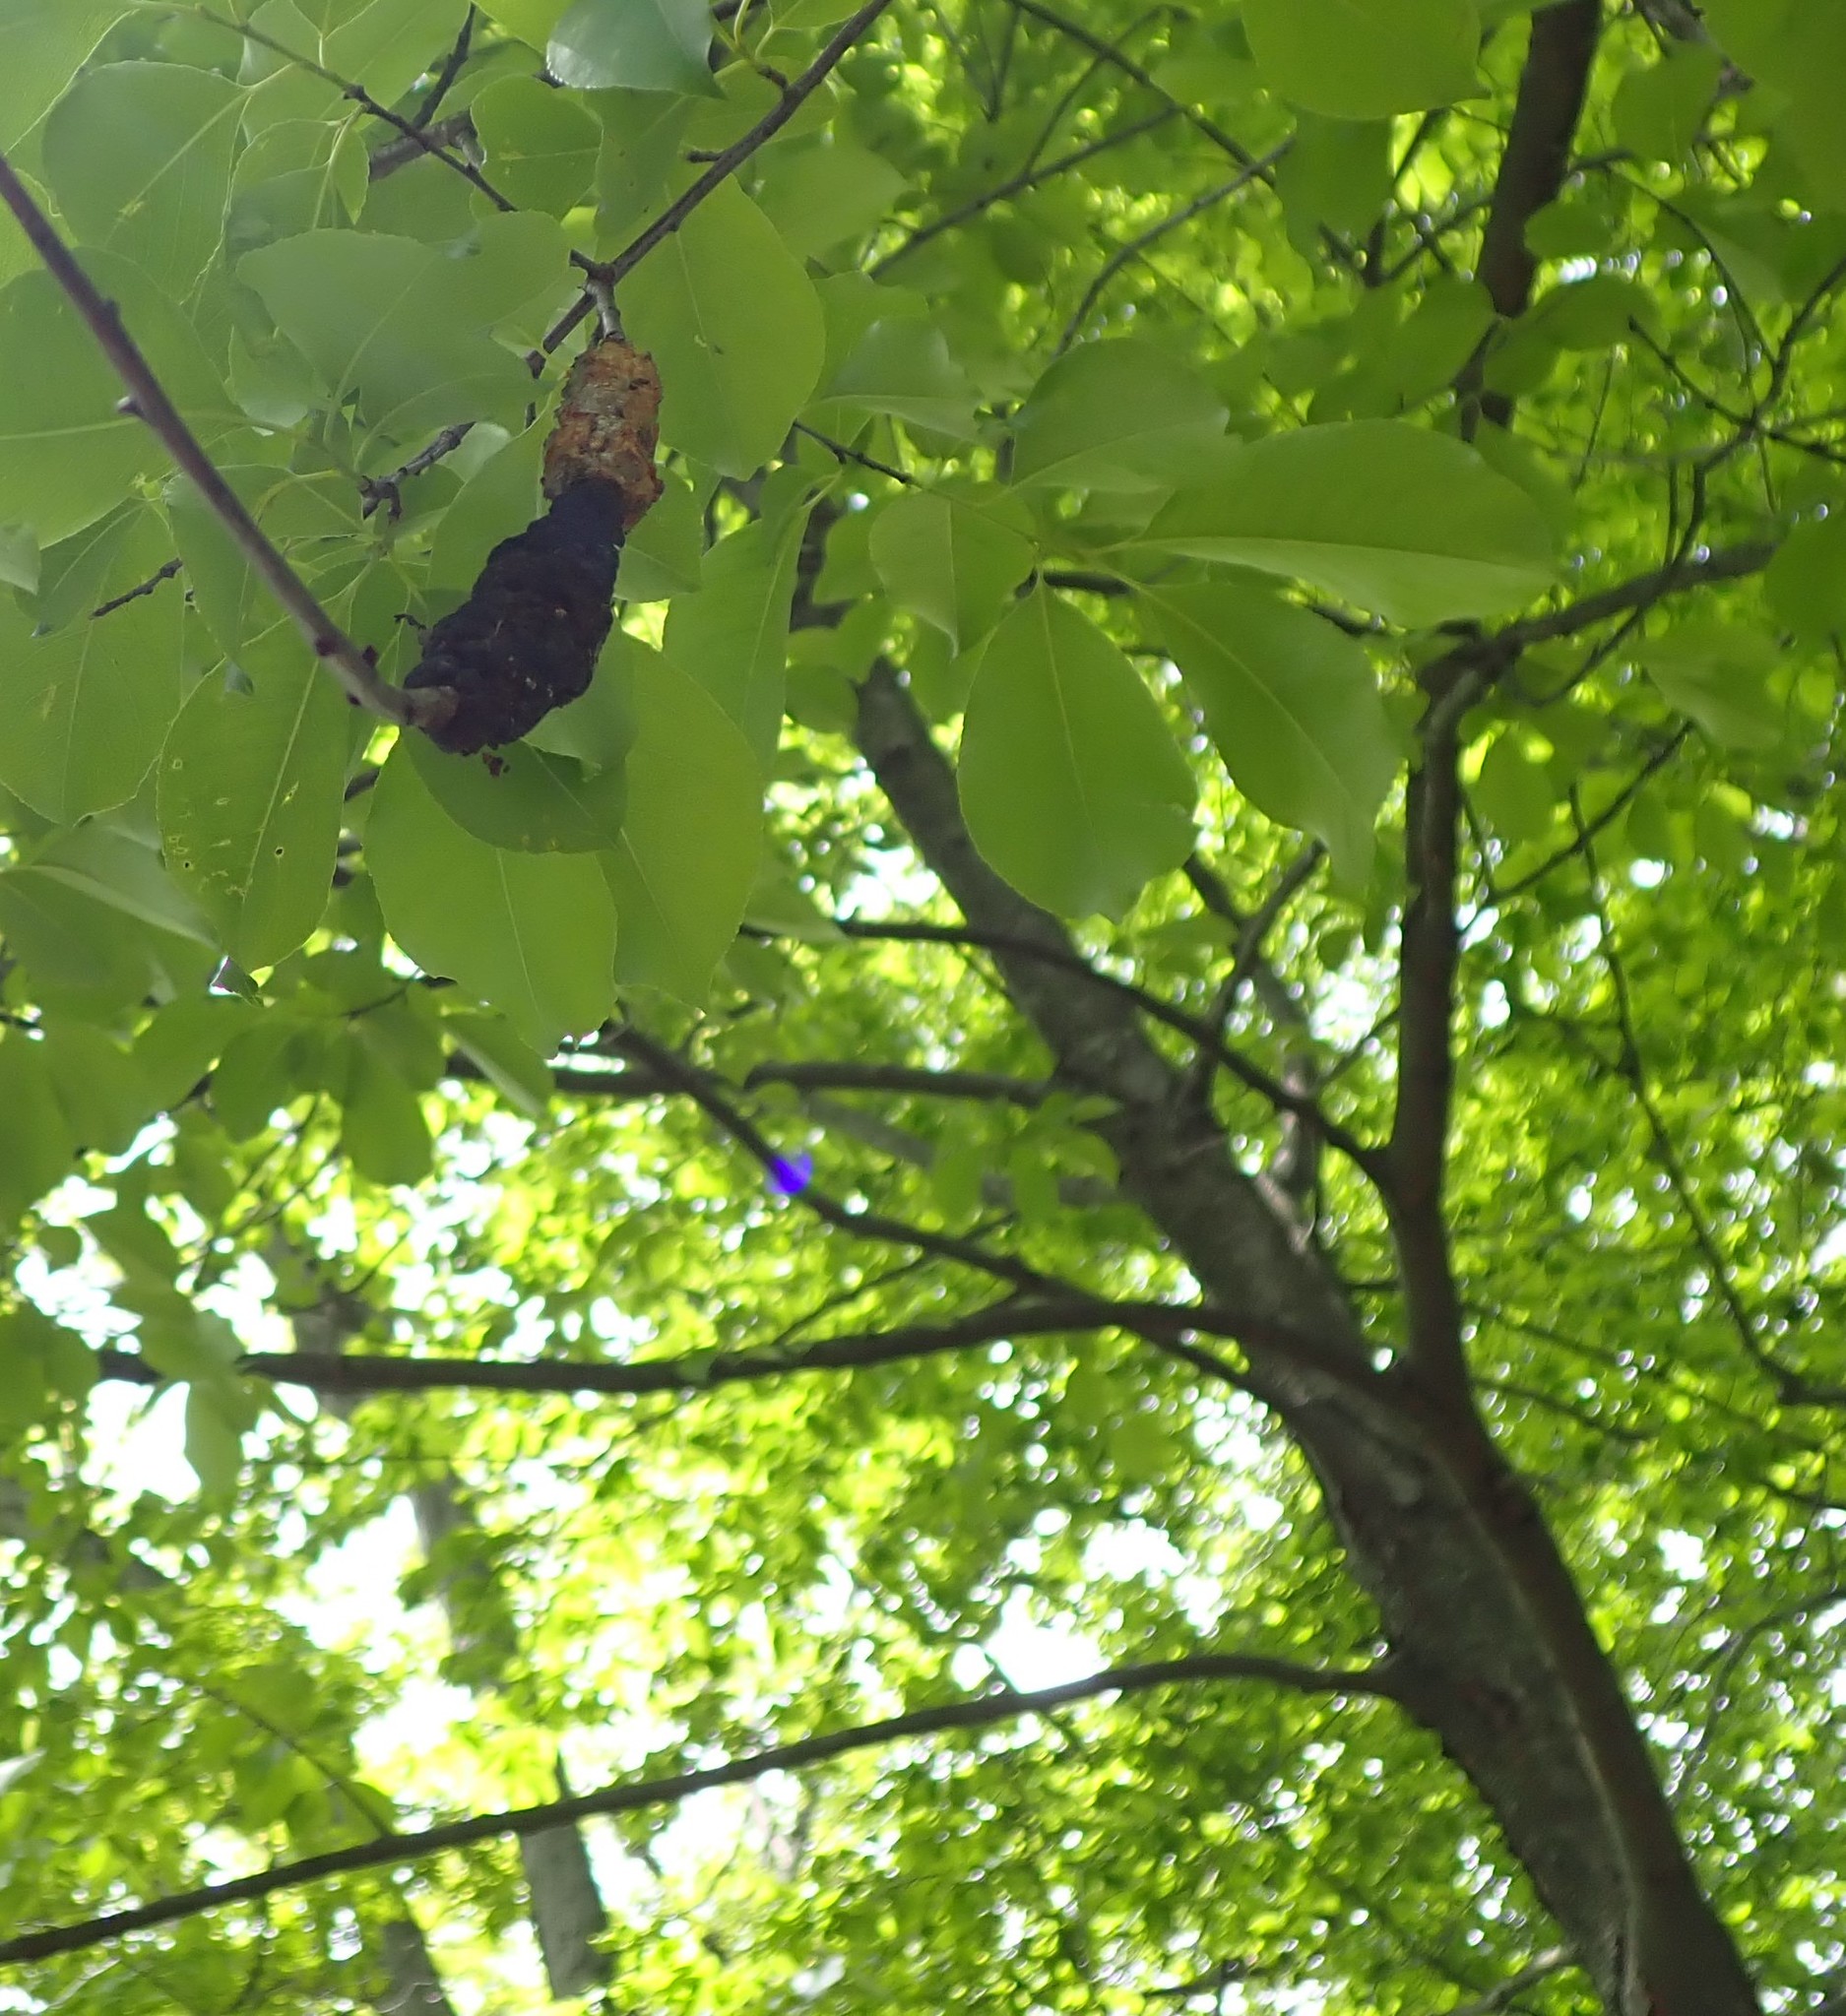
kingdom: Fungi
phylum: Ascomycota
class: Dothideomycetes
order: Venturiales
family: Venturiaceae
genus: Apiosporina
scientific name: Apiosporina morbosa
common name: Black knot
